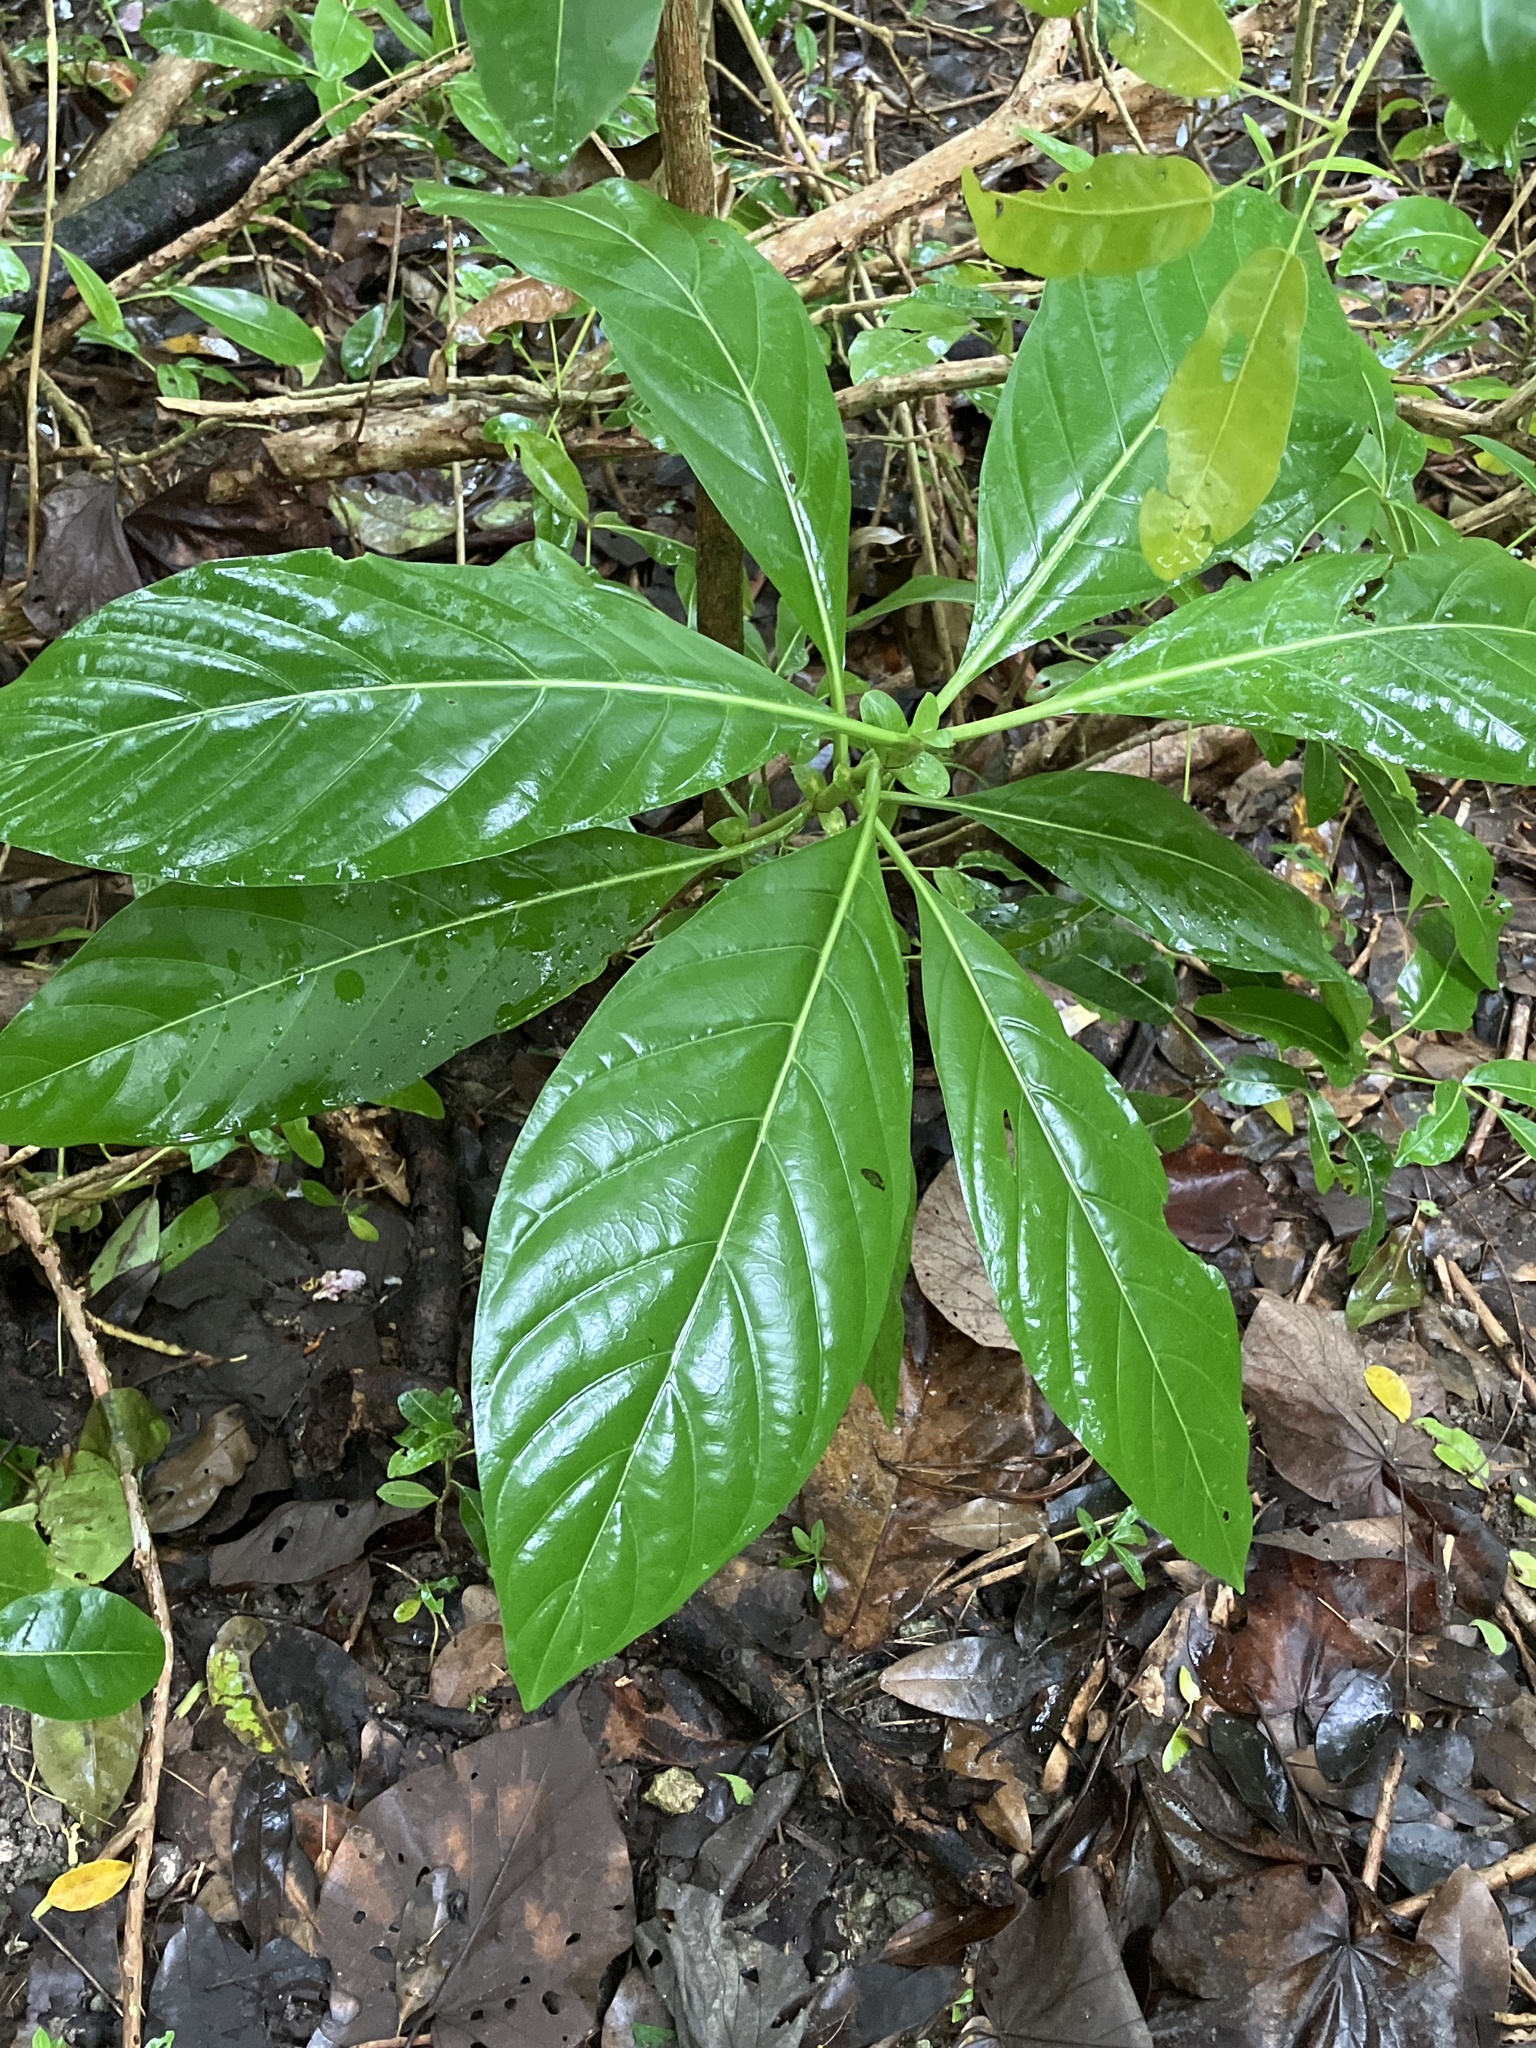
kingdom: Plantae
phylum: Tracheophyta
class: Magnoliopsida
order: Gentianales
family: Rubiaceae
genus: Morinda
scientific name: Morinda citrifolia
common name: Indian-mulberry
